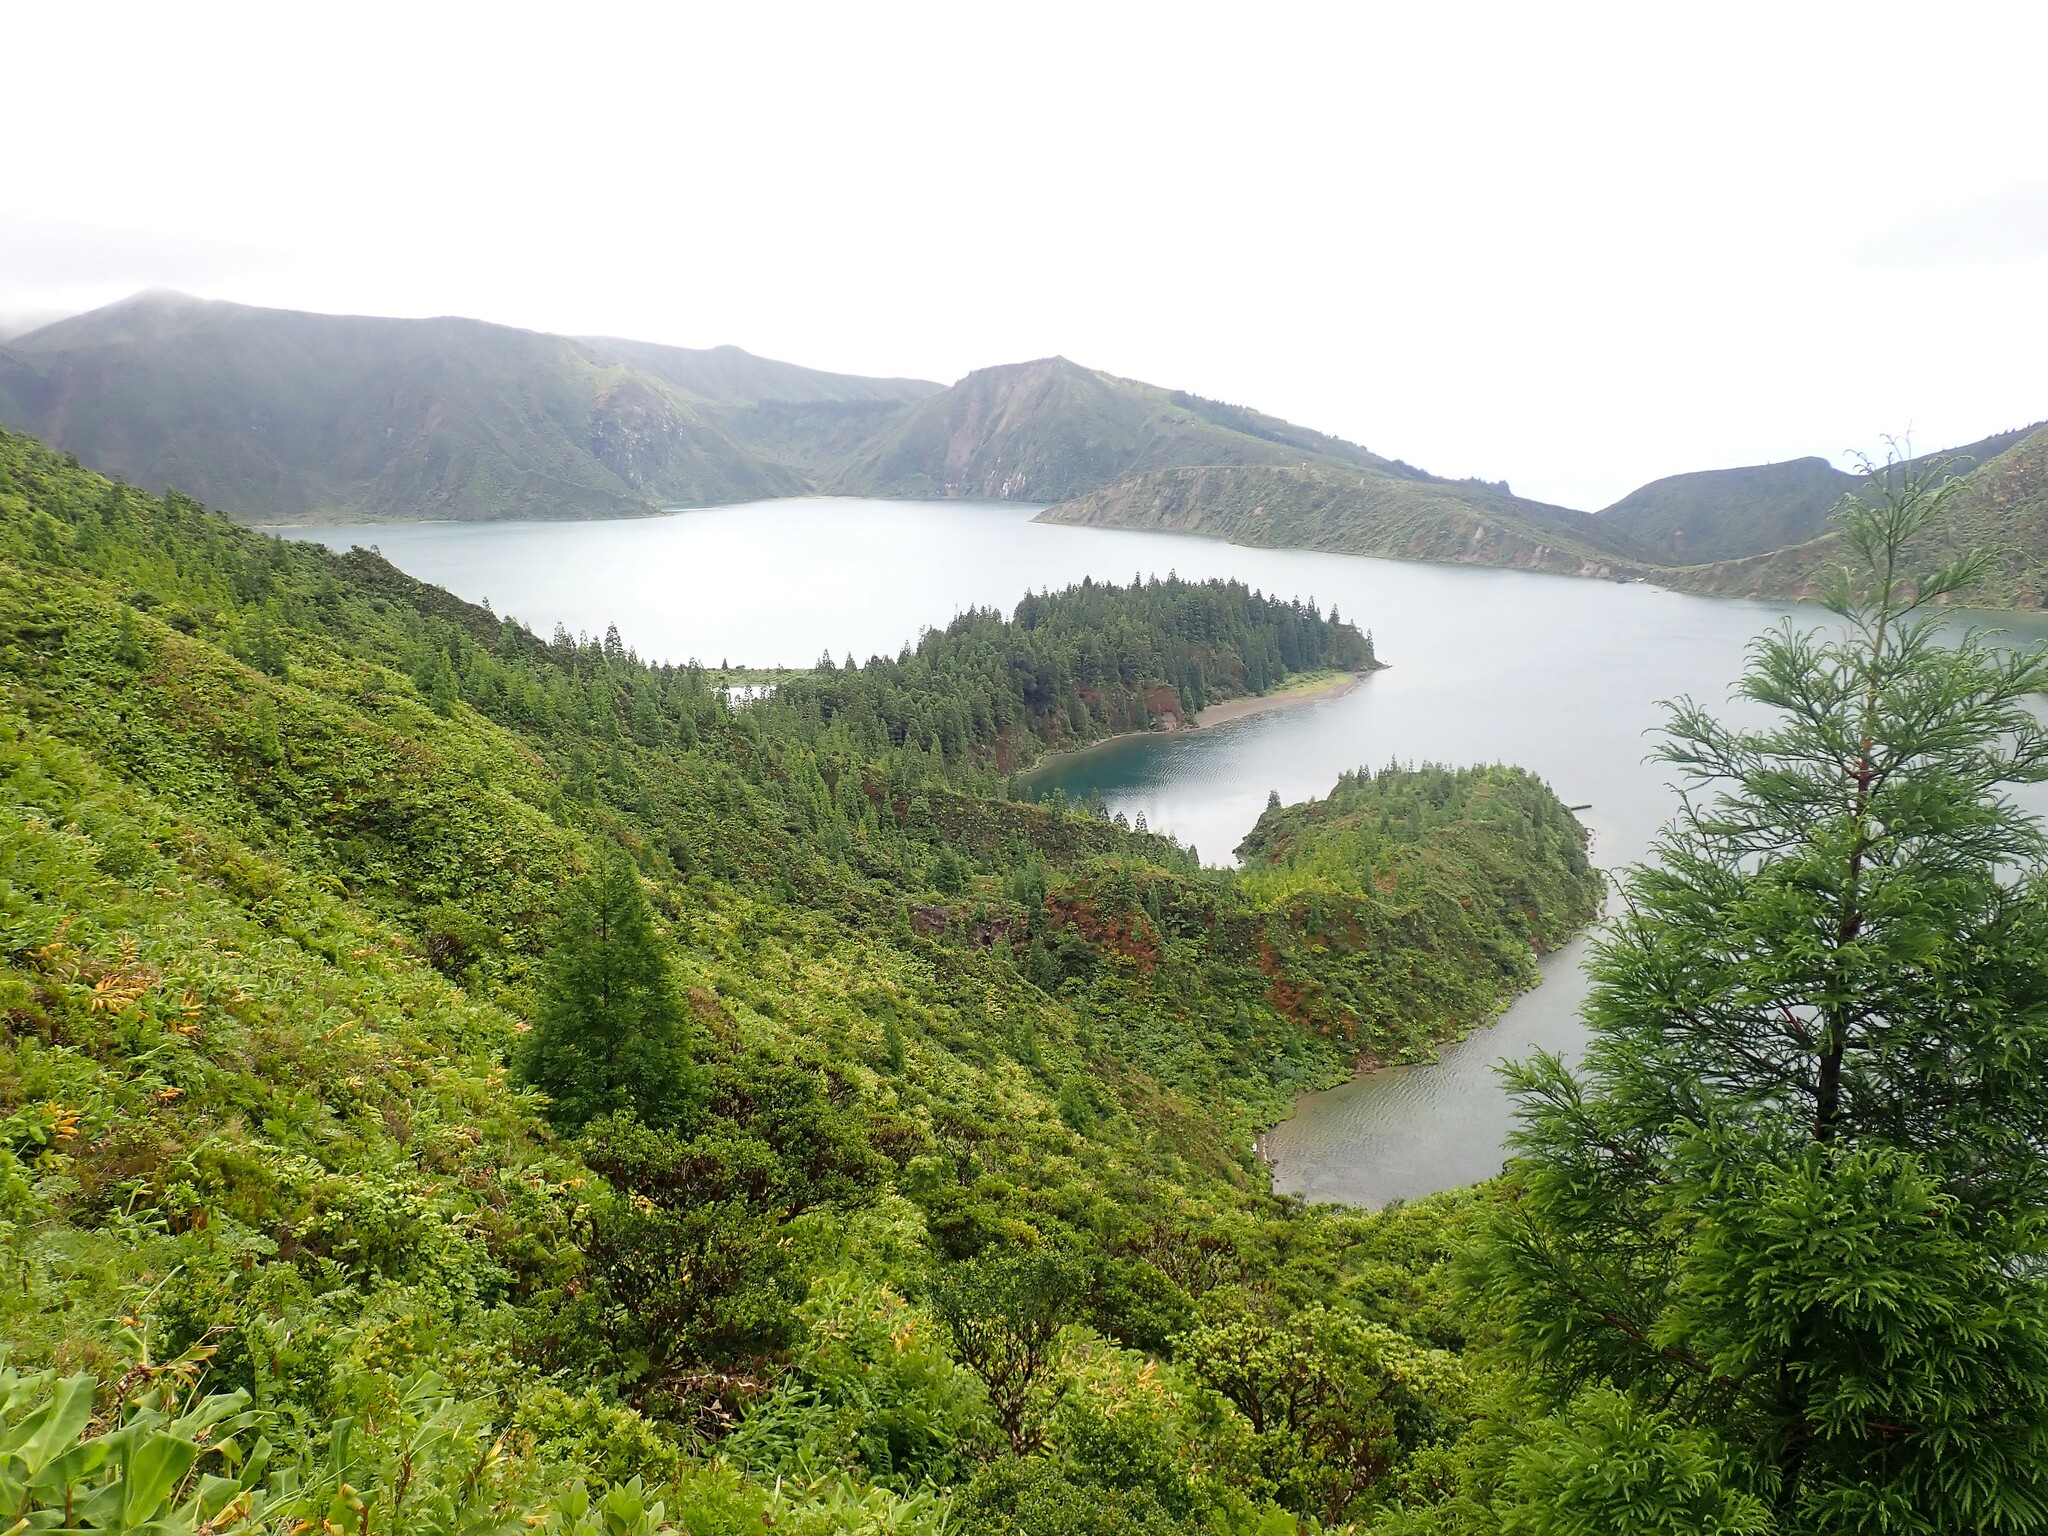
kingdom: Plantae
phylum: Tracheophyta
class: Pinopsida
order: Pinales
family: Cupressaceae
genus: Cryptomeria
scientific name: Cryptomeria japonica
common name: Japanese cedar
